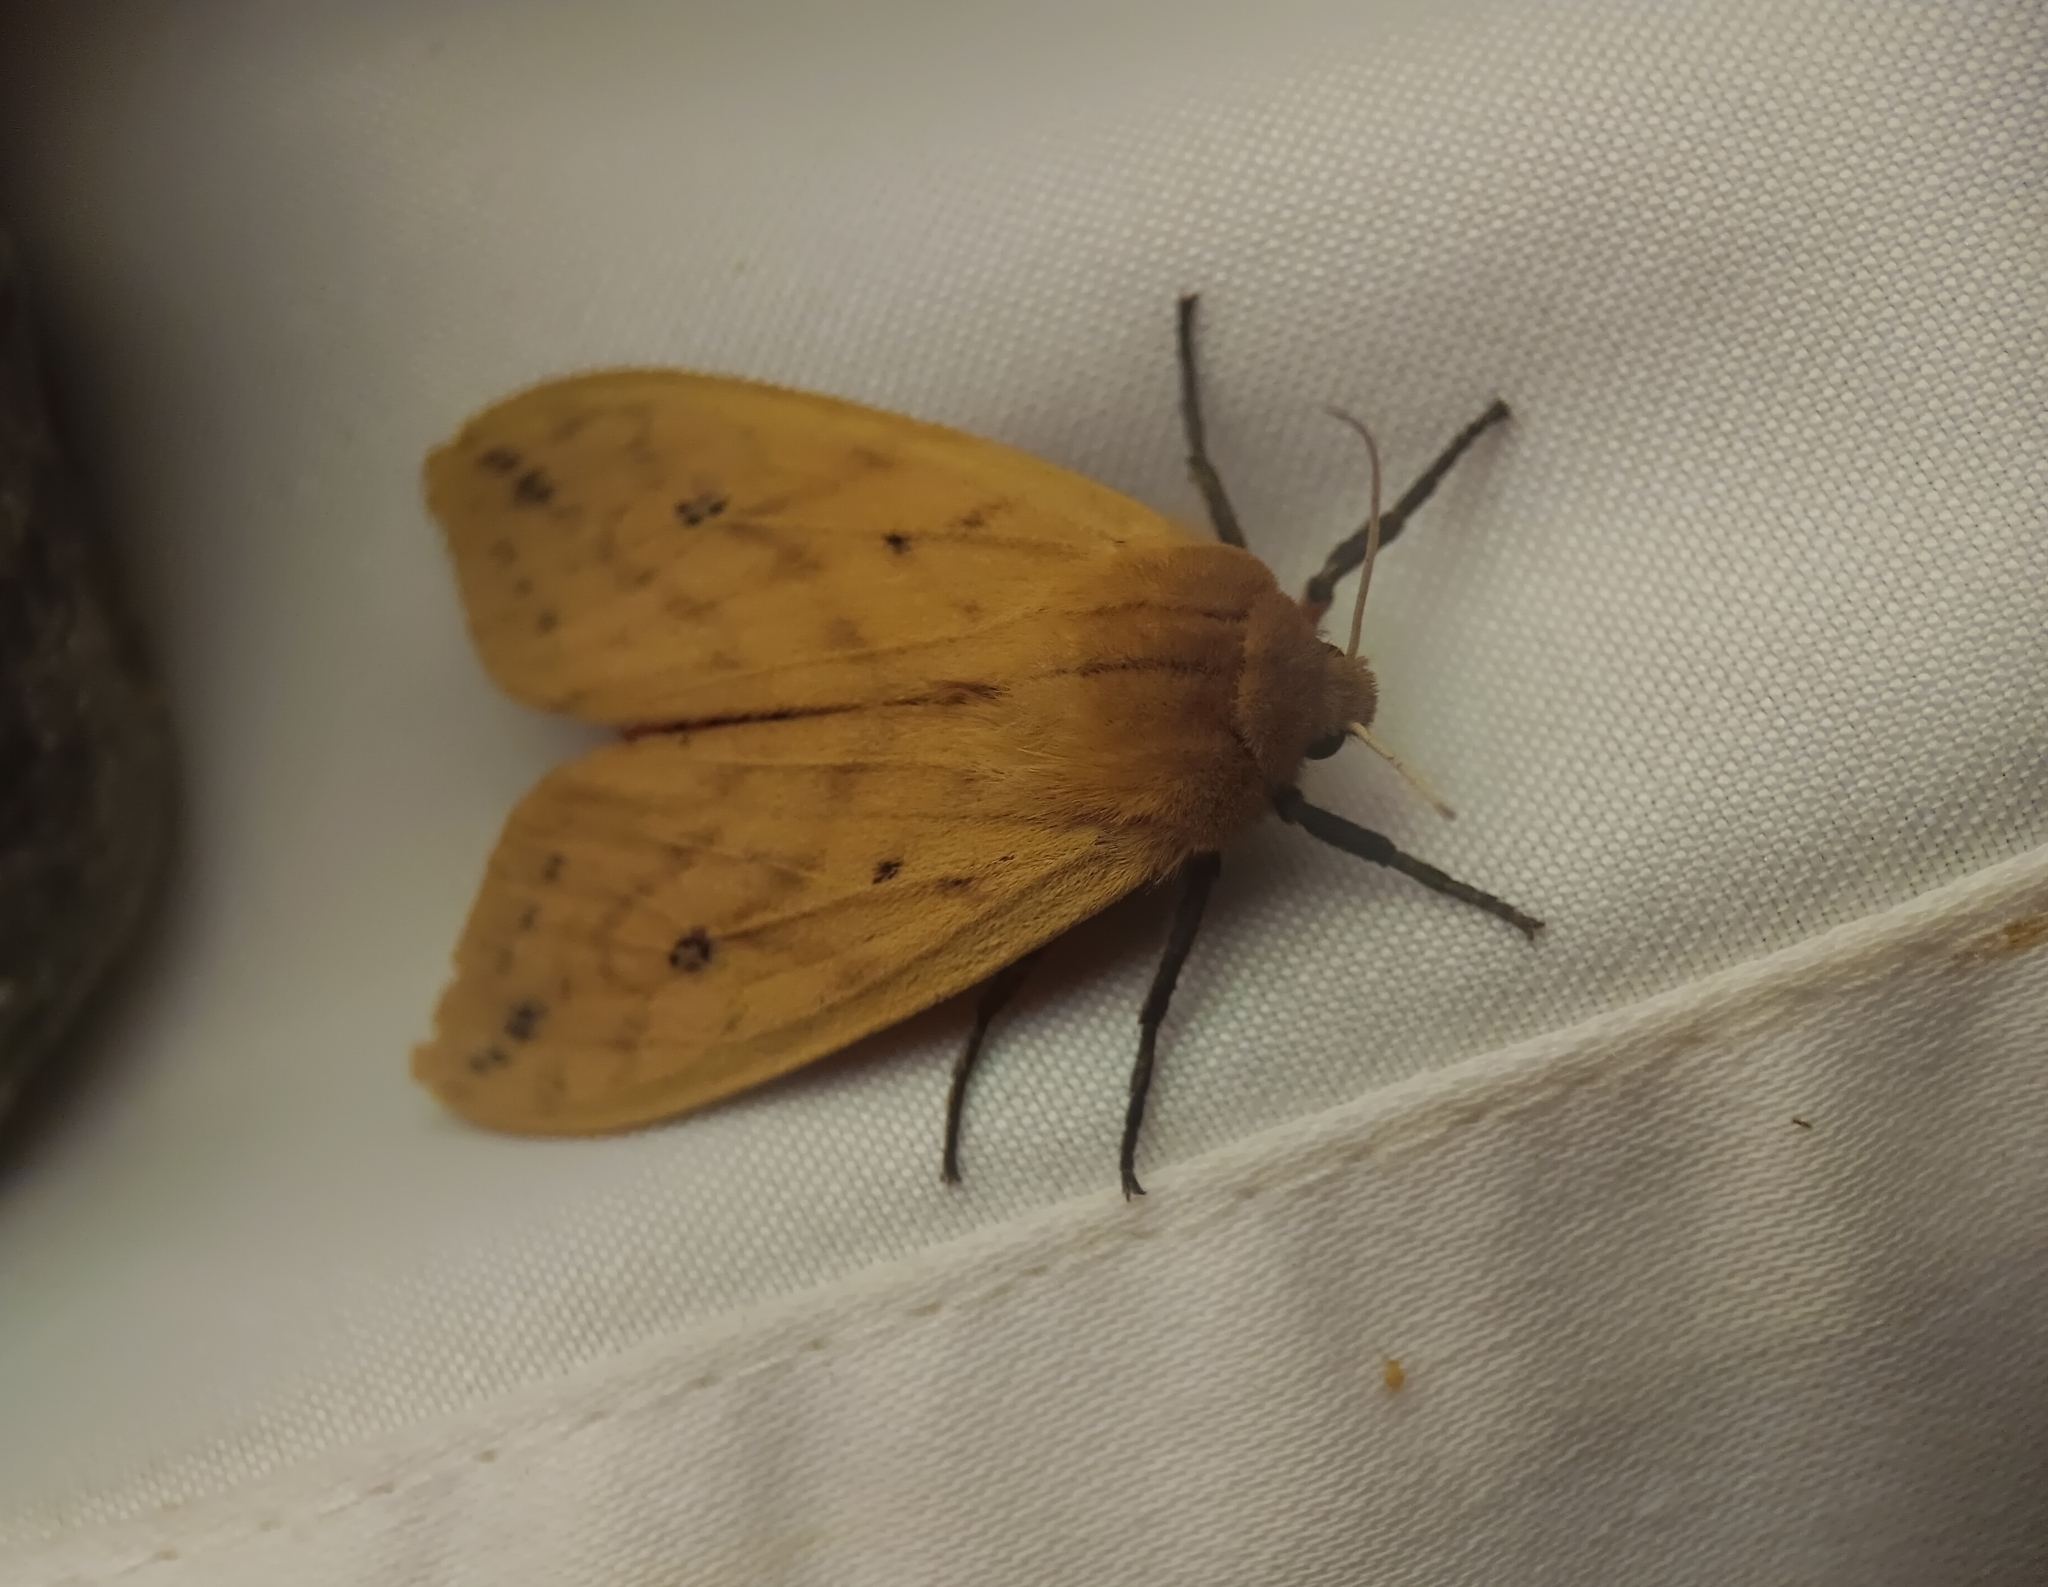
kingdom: Animalia
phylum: Arthropoda
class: Insecta
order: Lepidoptera
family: Erebidae
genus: Pyrrharctia
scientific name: Pyrrharctia isabella
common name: Isabella tiger moth
